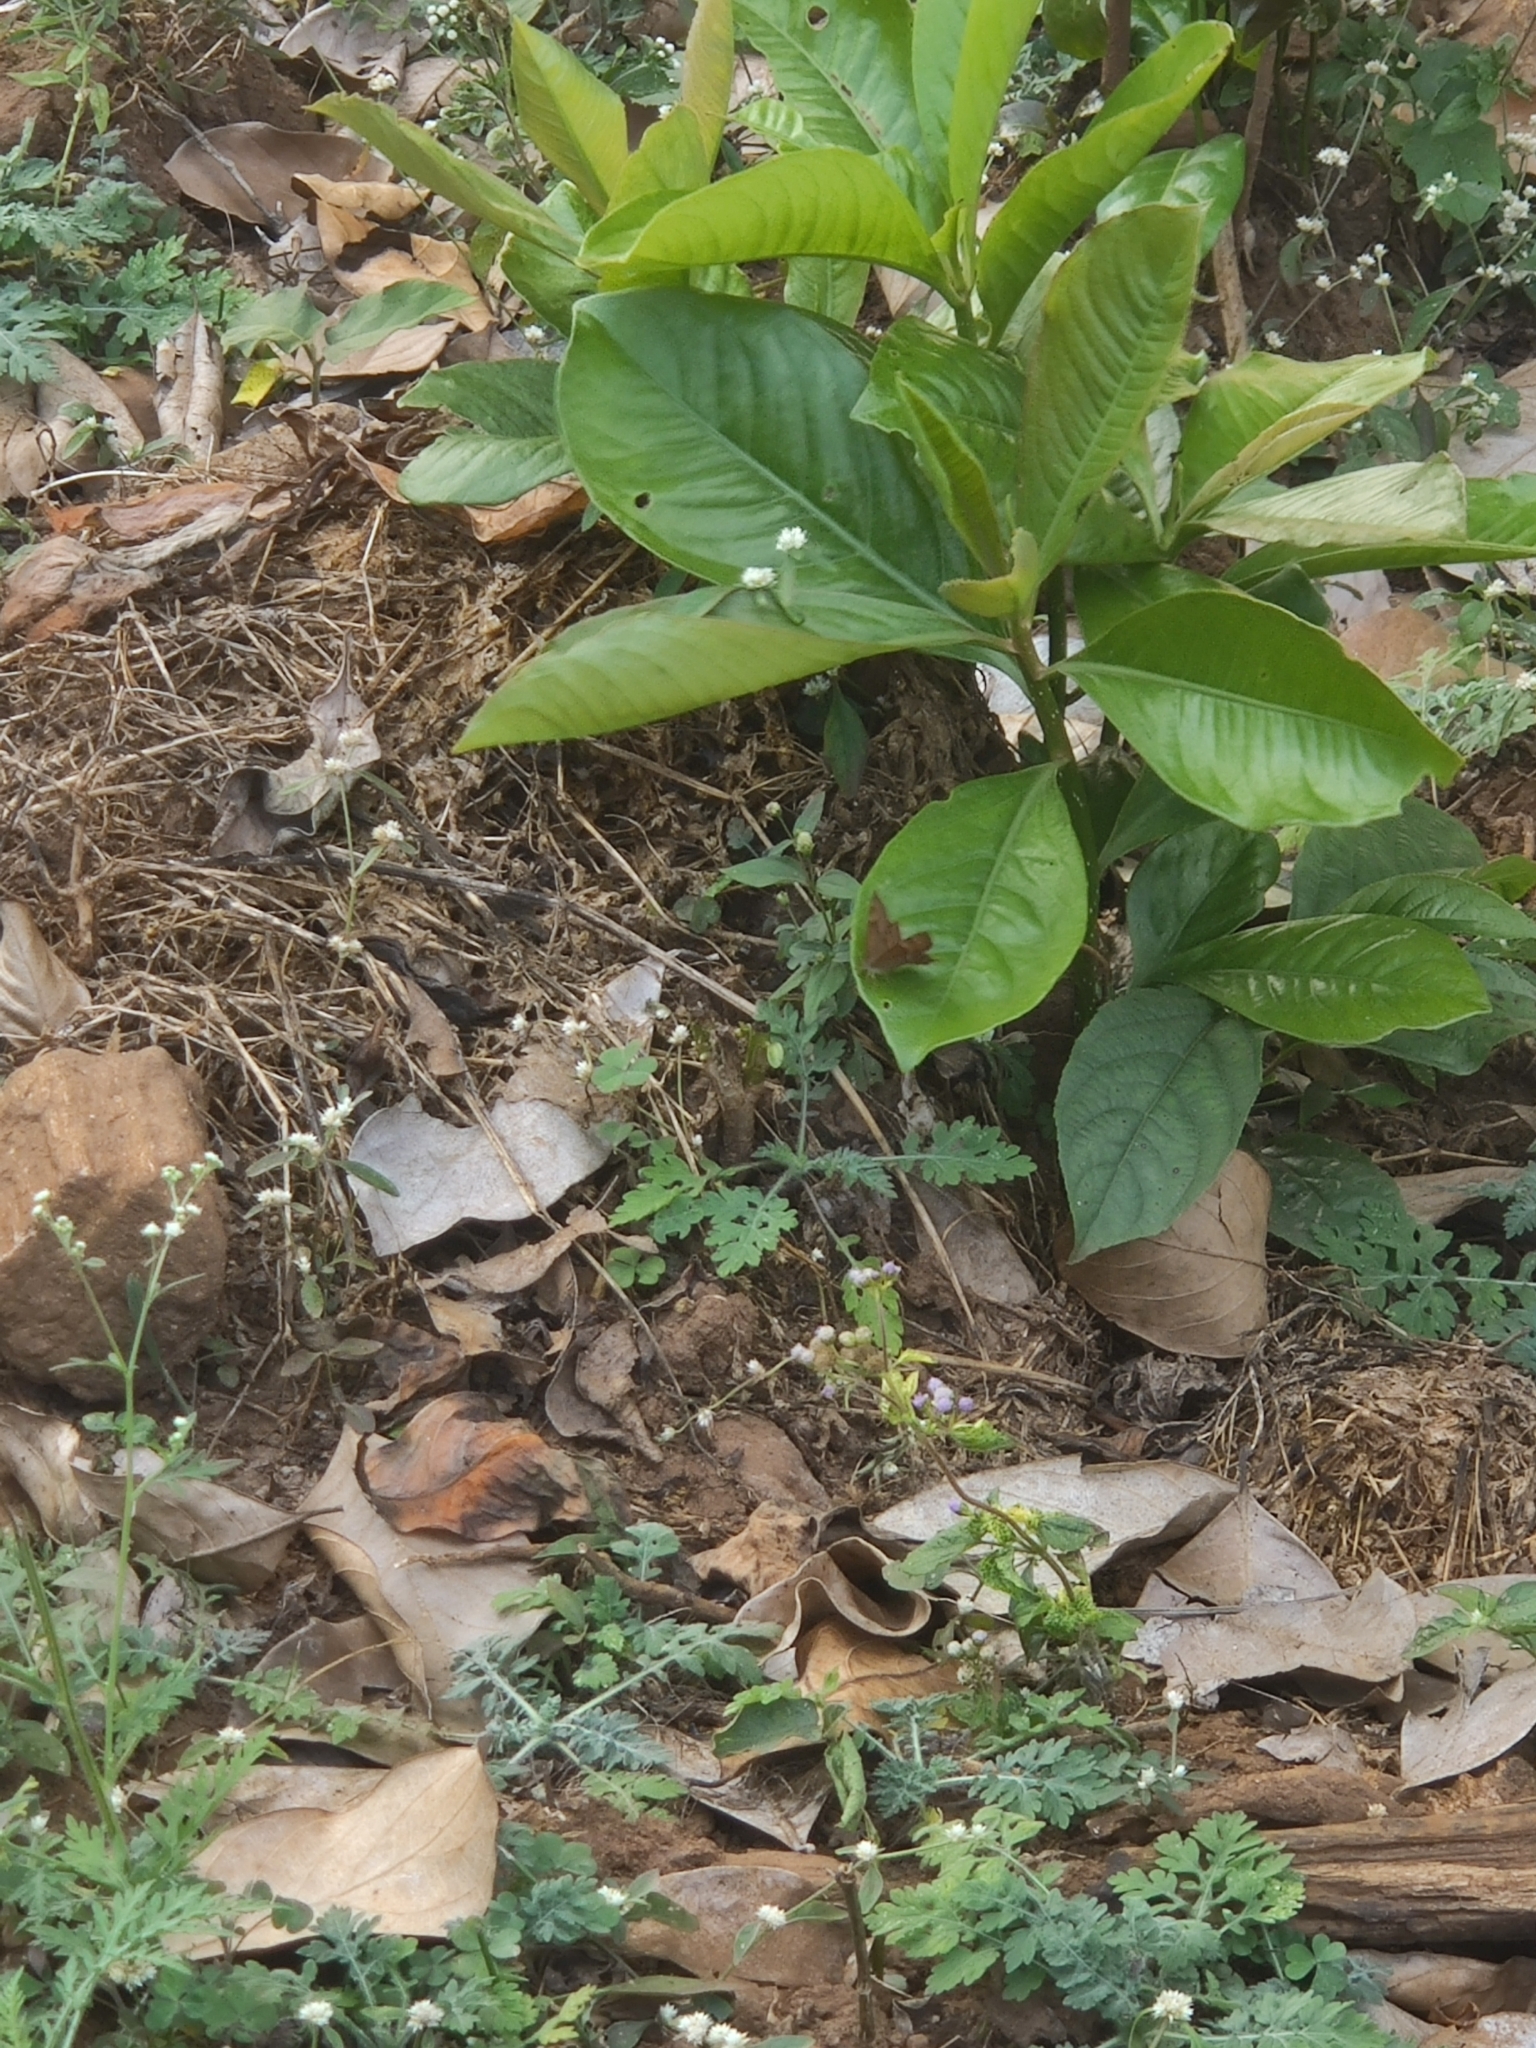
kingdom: Animalia
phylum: Arthropoda
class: Insecta
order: Lepidoptera
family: Lycaenidae
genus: Abisara
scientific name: Abisara bifasciata
